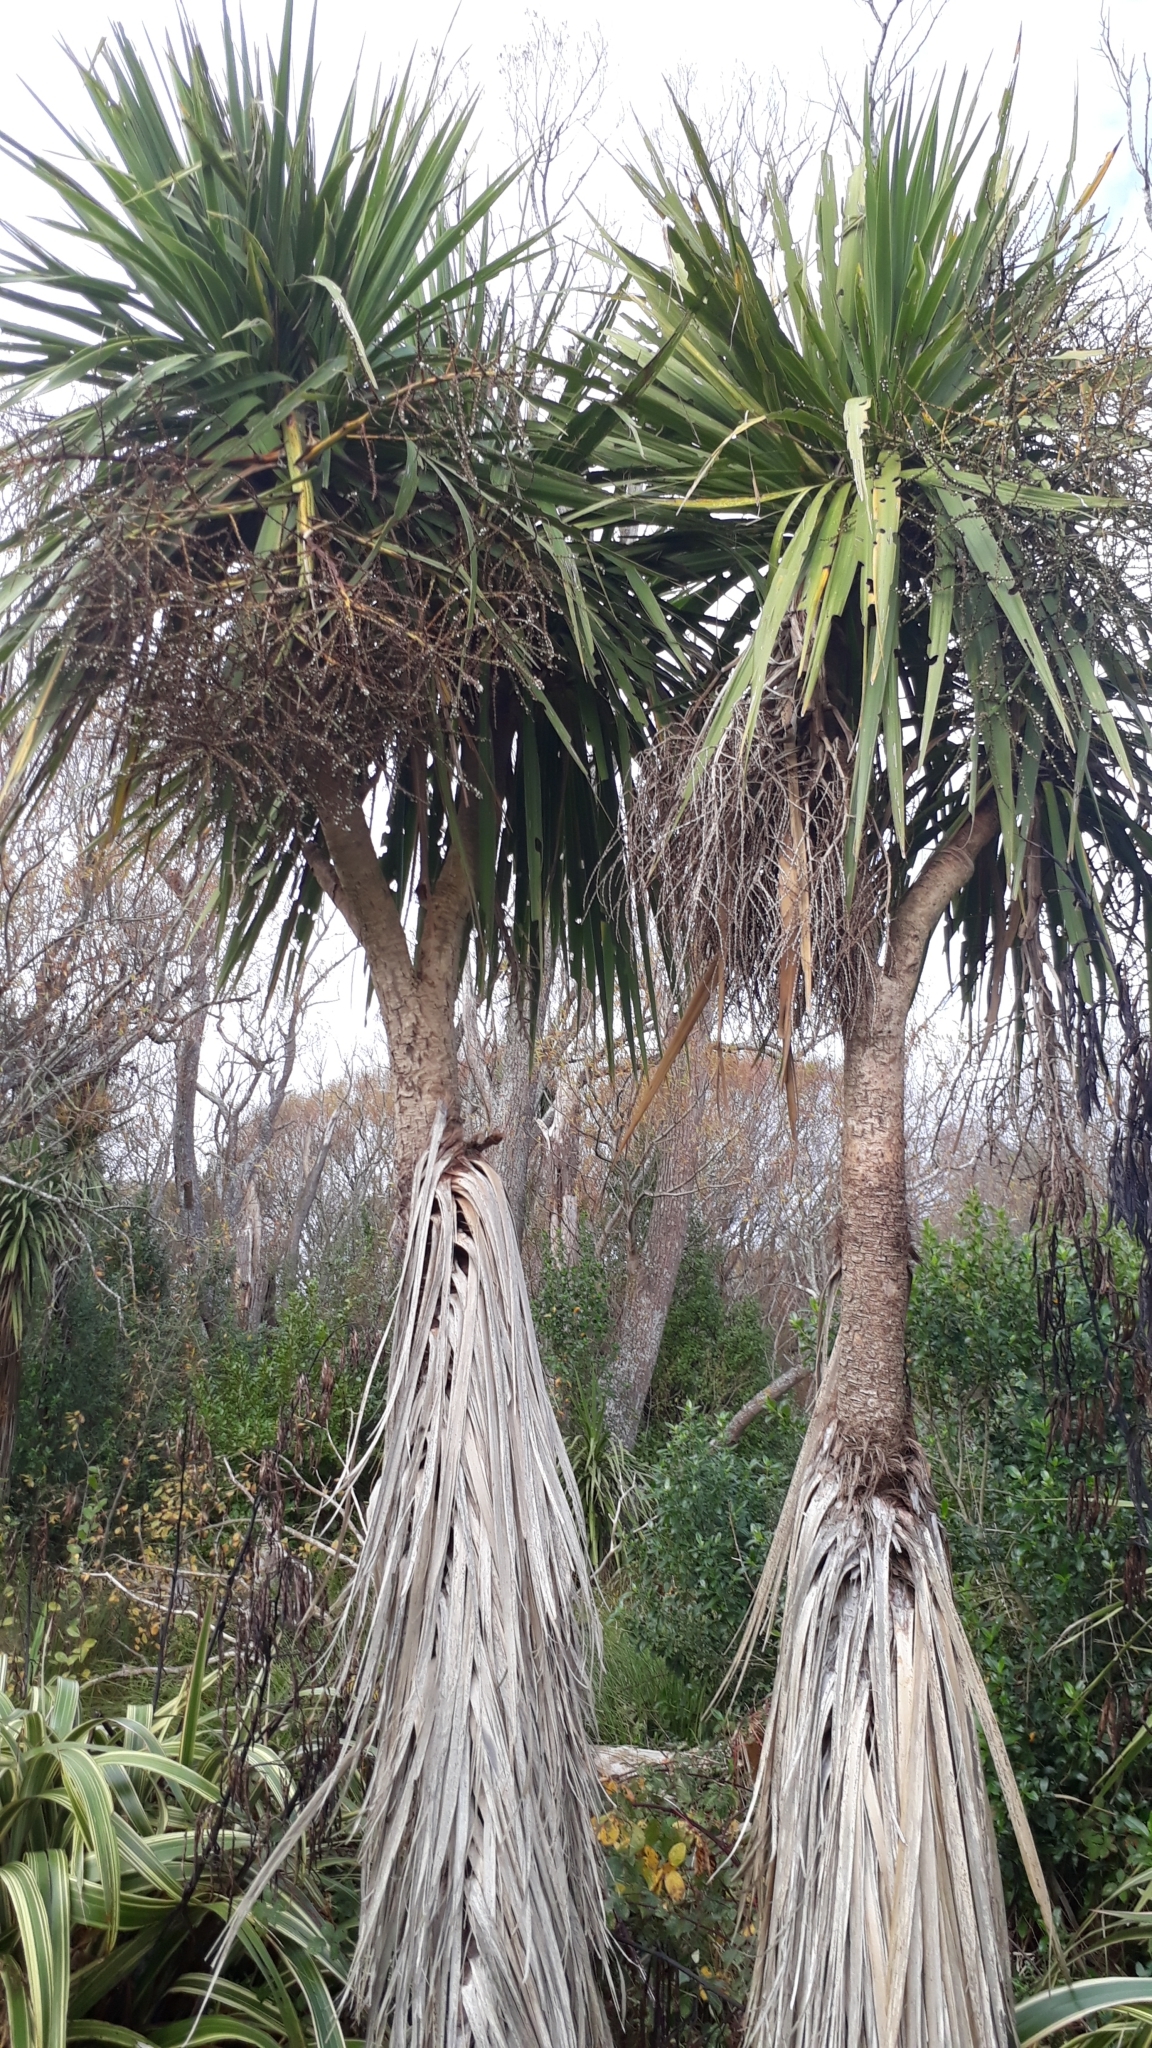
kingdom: Plantae
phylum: Tracheophyta
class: Liliopsida
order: Asparagales
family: Asparagaceae
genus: Cordyline
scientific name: Cordyline australis
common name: Cabbage-palm
